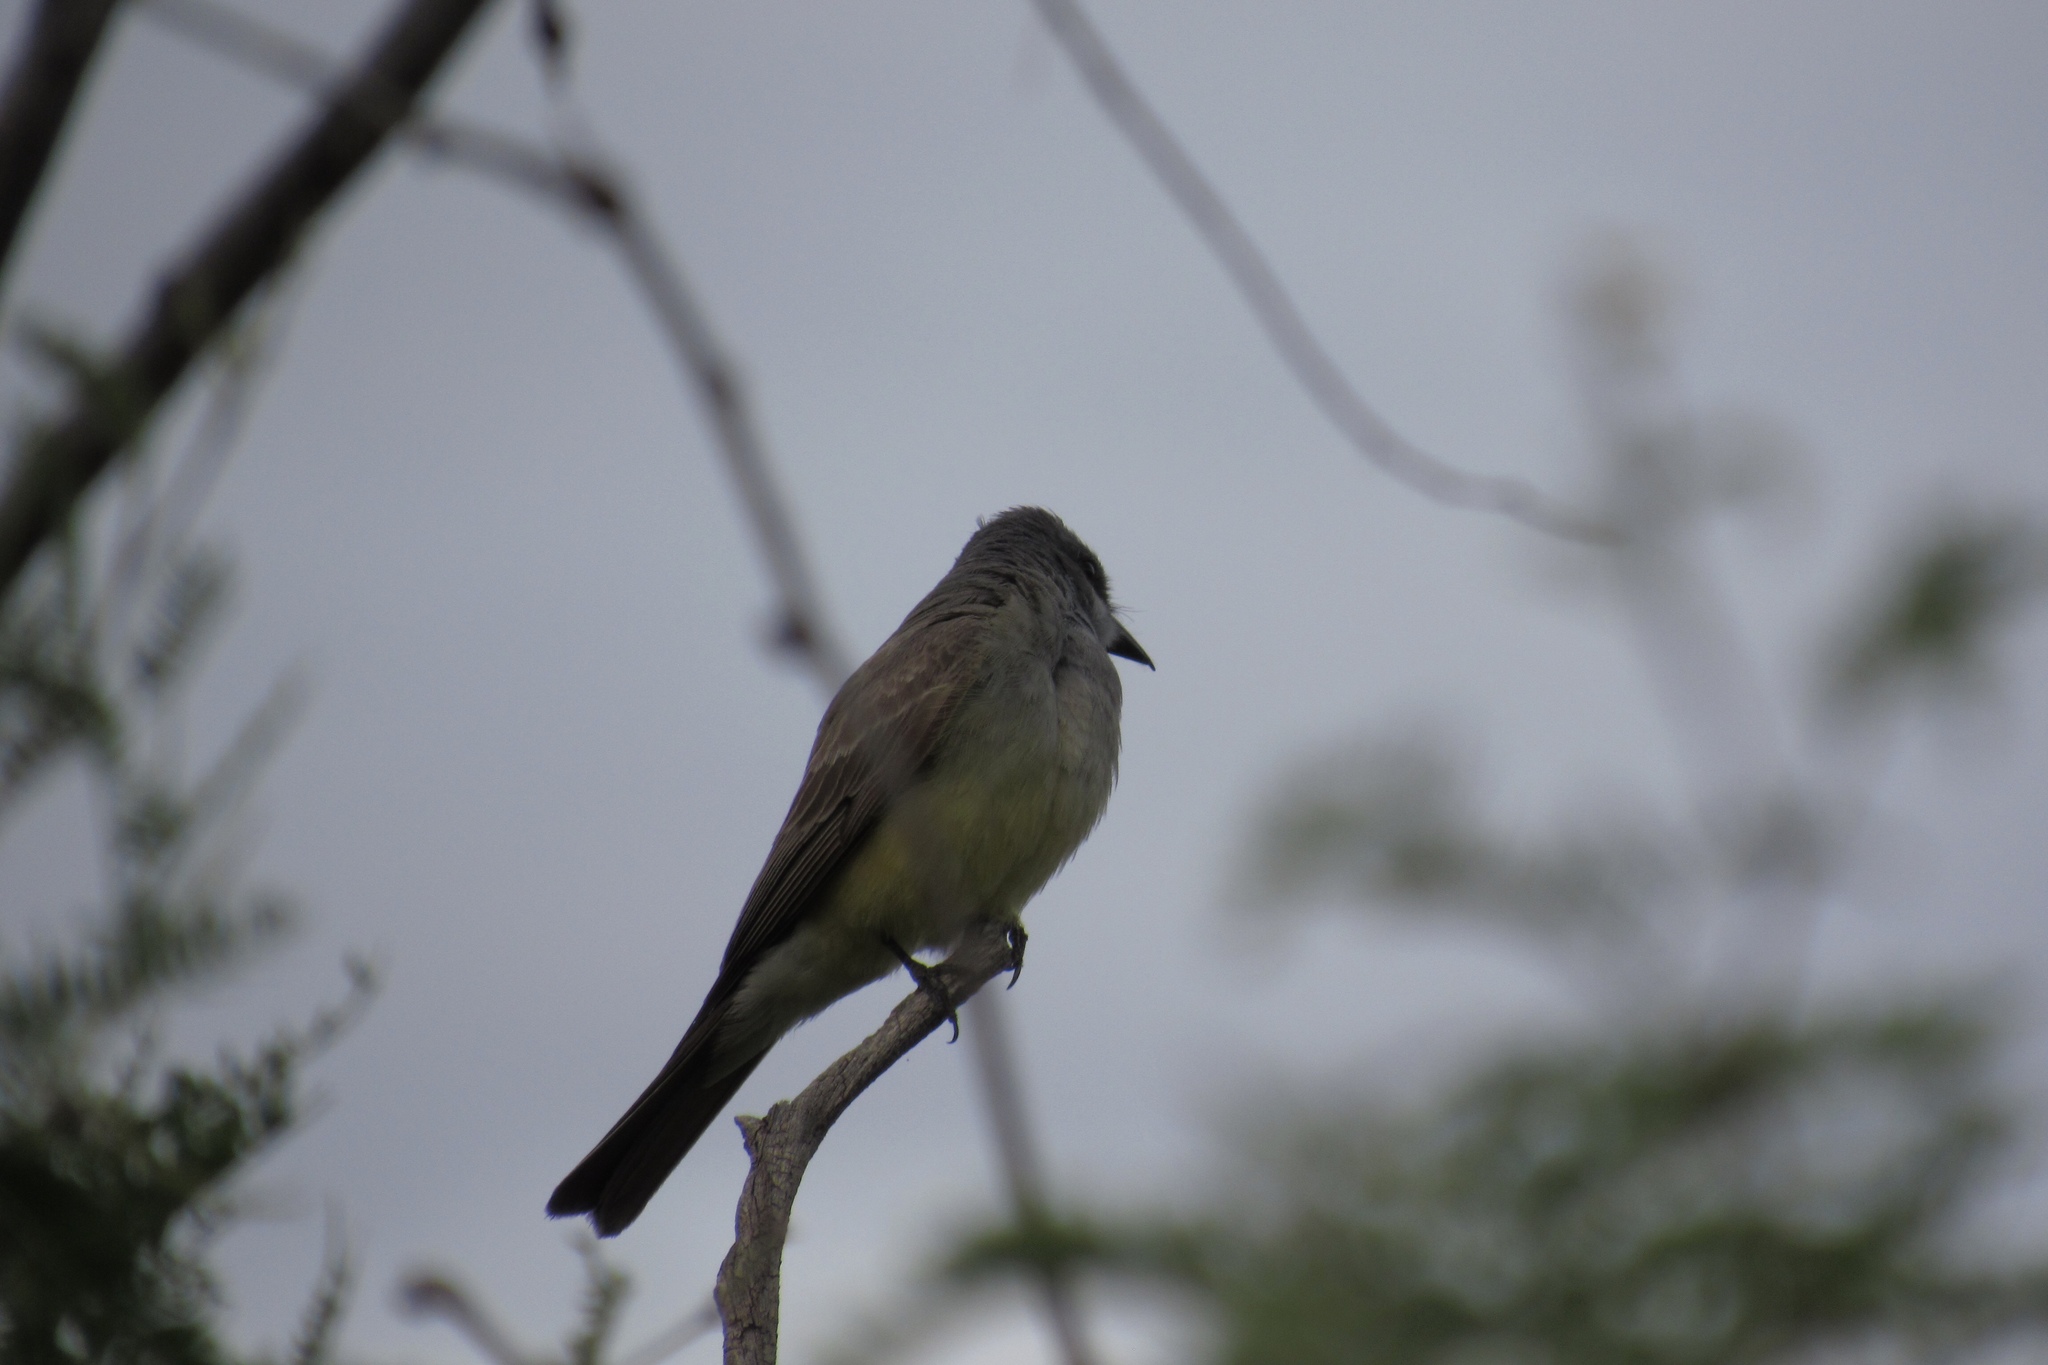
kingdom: Animalia
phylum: Chordata
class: Aves
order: Passeriformes
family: Tyrannidae
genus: Tyrannus
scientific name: Tyrannus vociferans
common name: Cassin's kingbird
